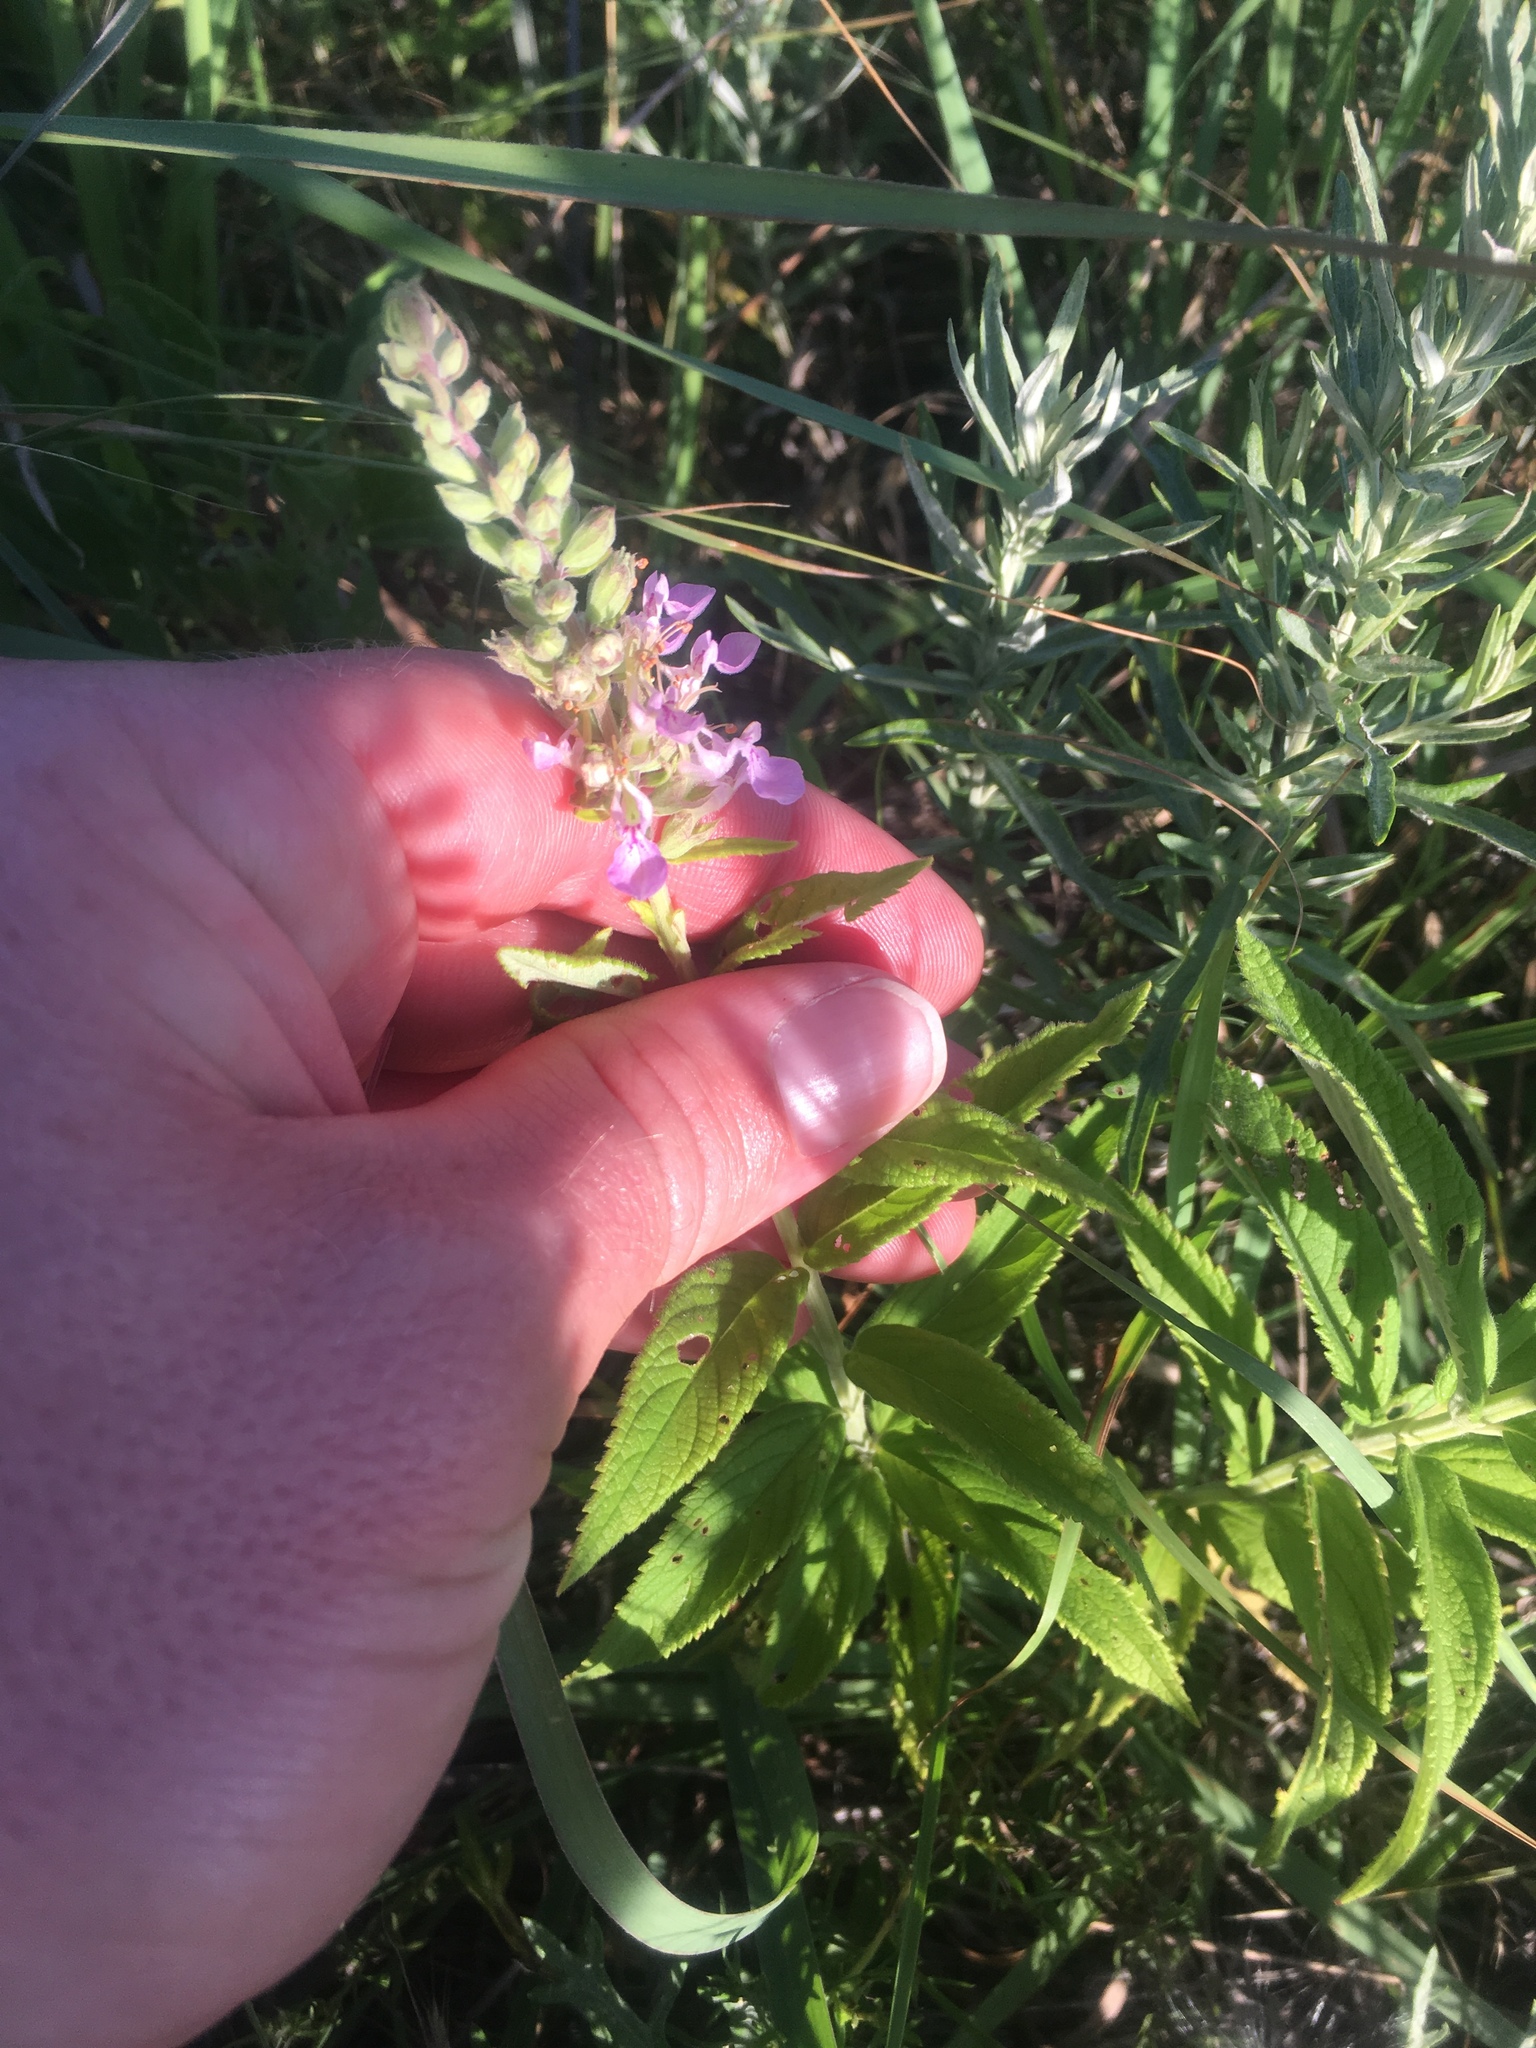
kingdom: Plantae
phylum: Tracheophyta
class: Magnoliopsida
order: Lamiales
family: Lamiaceae
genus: Teucrium
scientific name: Teucrium canadense
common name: American germander
